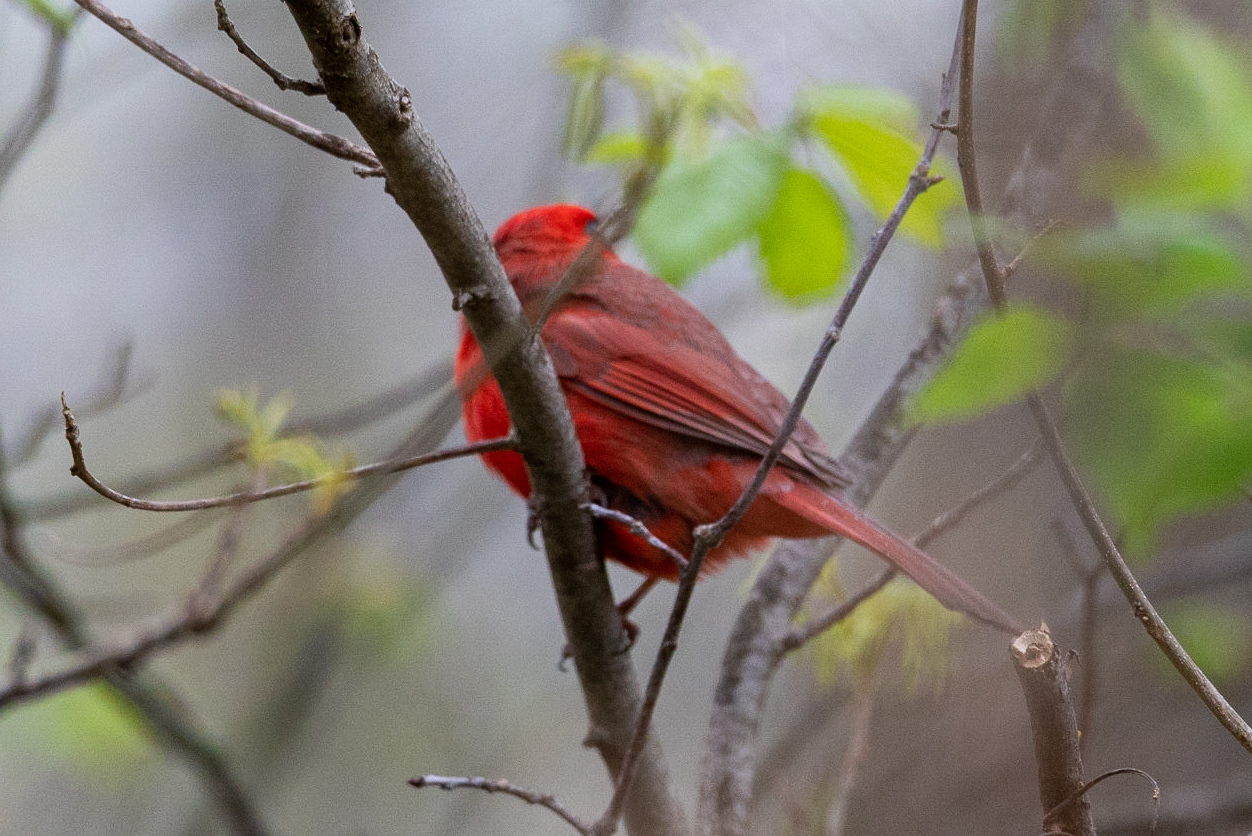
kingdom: Animalia
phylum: Chordata
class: Aves
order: Passeriformes
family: Cardinalidae
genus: Cardinalis
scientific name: Cardinalis cardinalis
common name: Northern cardinal
